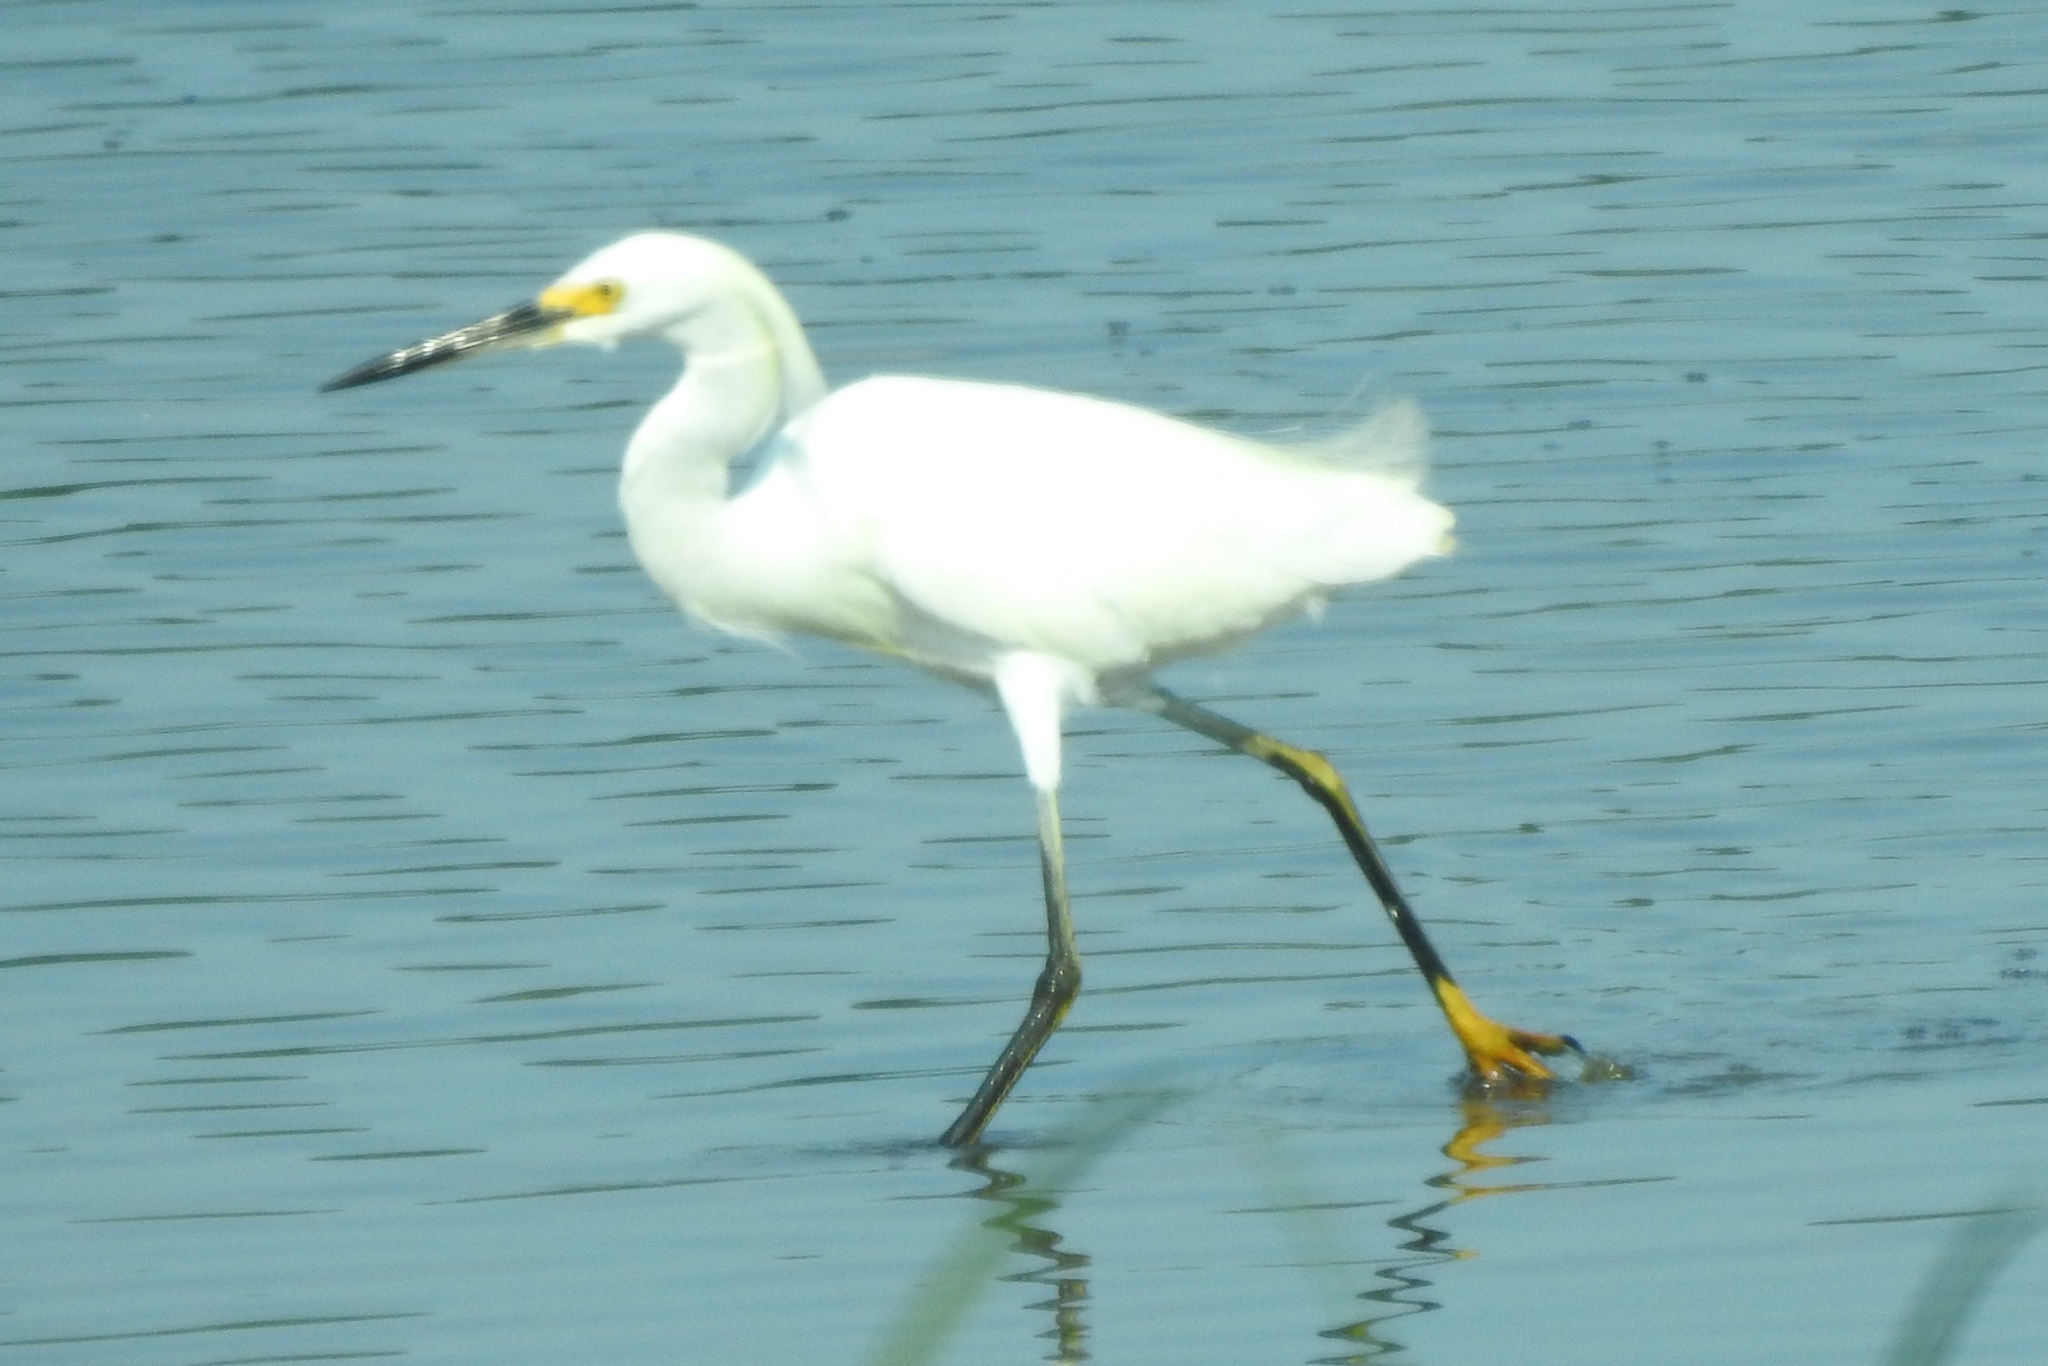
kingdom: Animalia
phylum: Chordata
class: Aves
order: Pelecaniformes
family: Ardeidae
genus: Egretta
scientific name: Egretta thula
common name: Snowy egret
